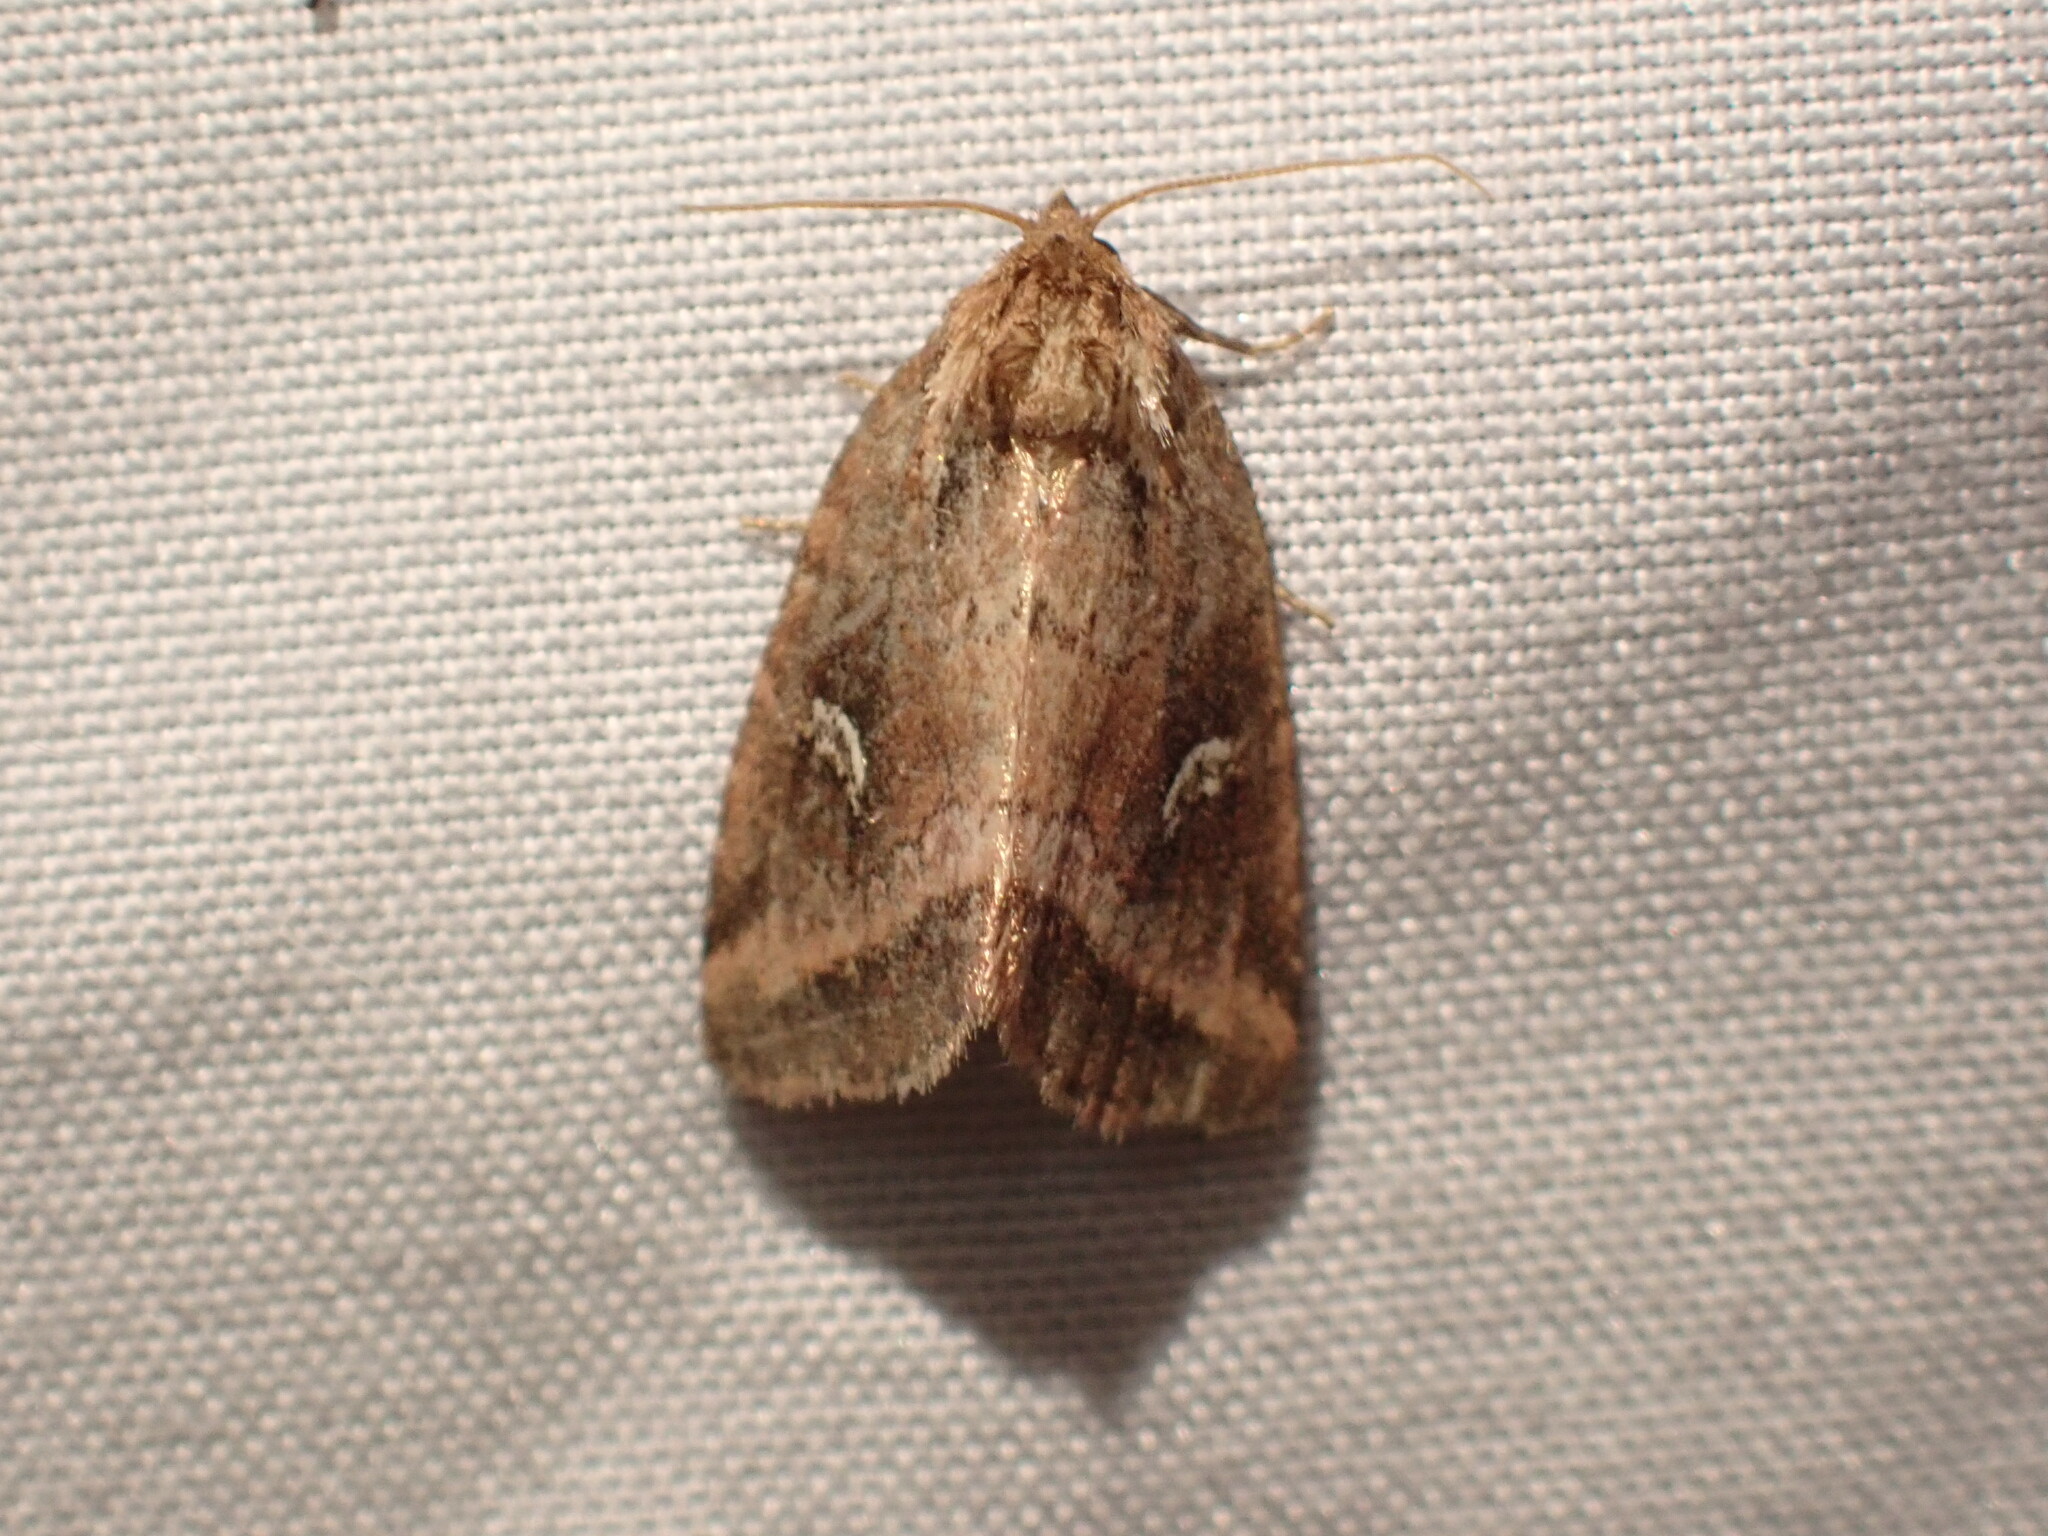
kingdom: Animalia
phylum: Arthropoda
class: Insecta
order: Lepidoptera
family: Noctuidae
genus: Photedes
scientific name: Photedes includens
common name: Included cordgrass borer moth
